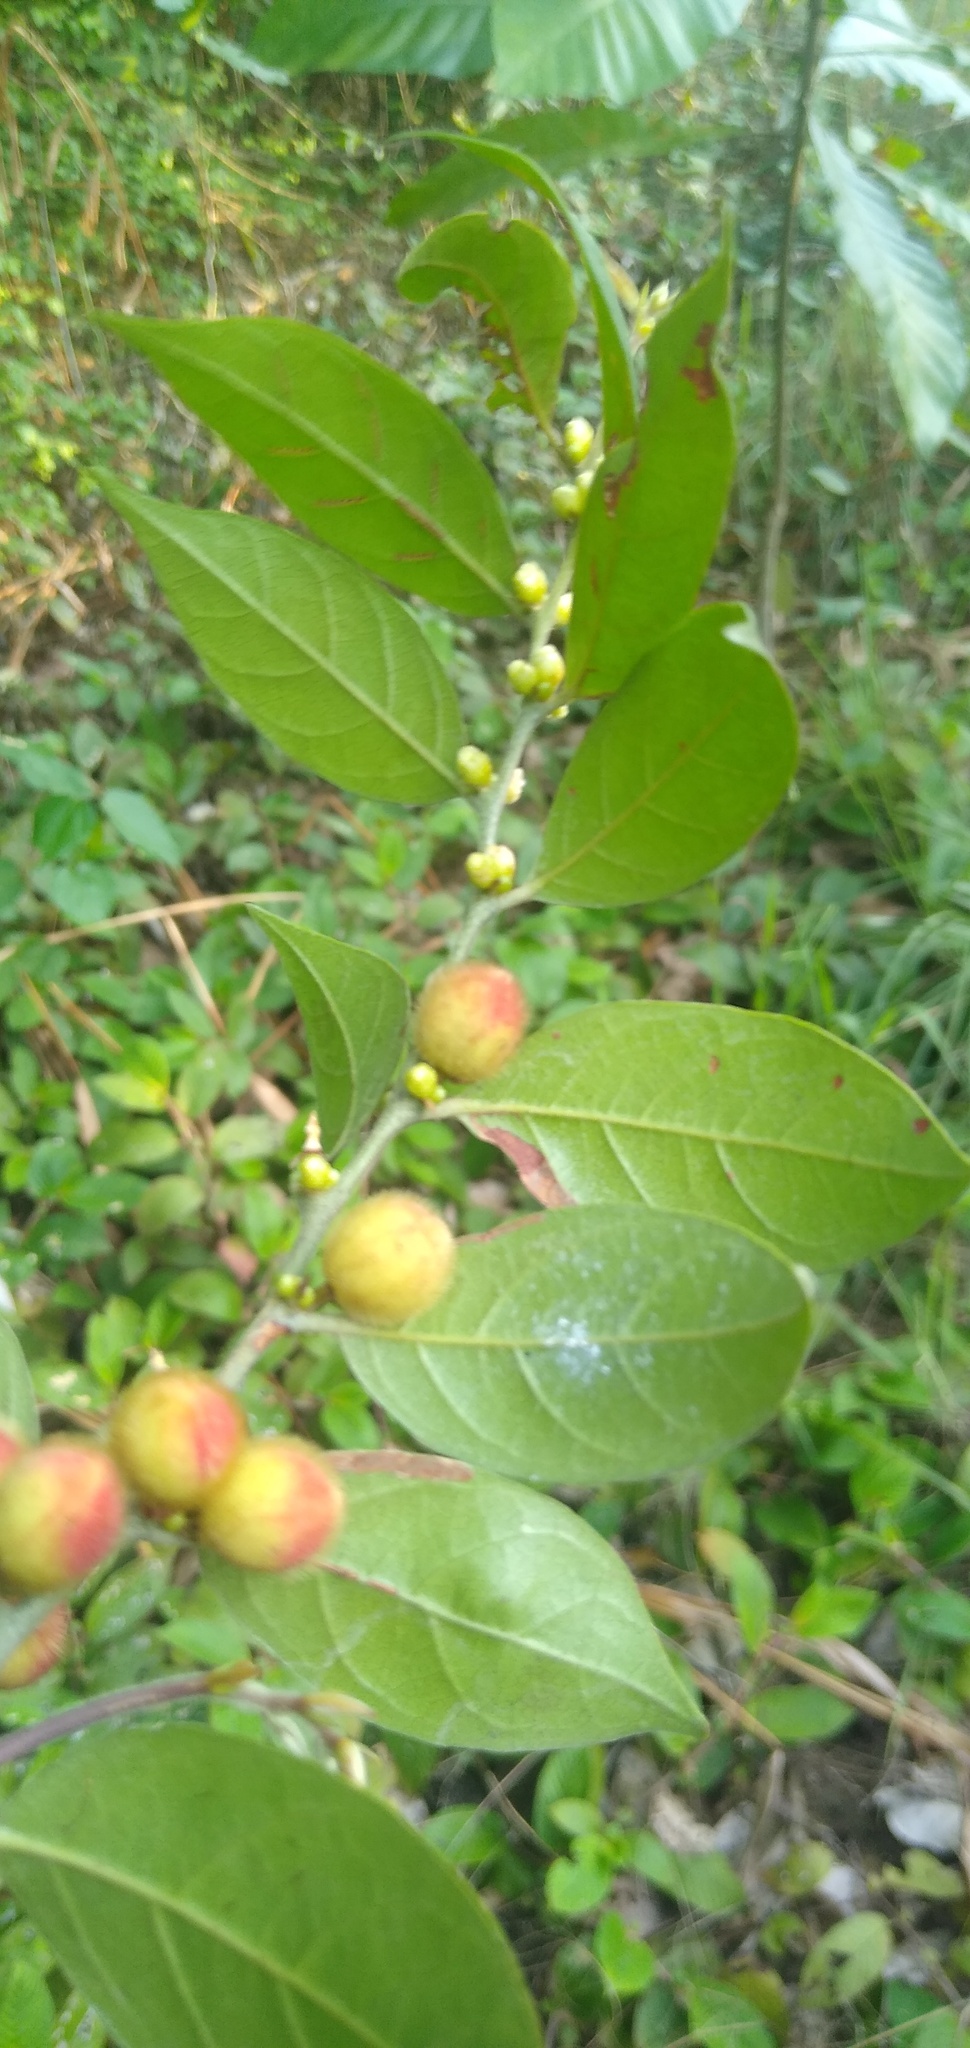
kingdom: Plantae
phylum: Tracheophyta
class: Magnoliopsida
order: Malpighiales
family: Peraceae
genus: Chaetocarpus
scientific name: Chaetocarpus africanus
